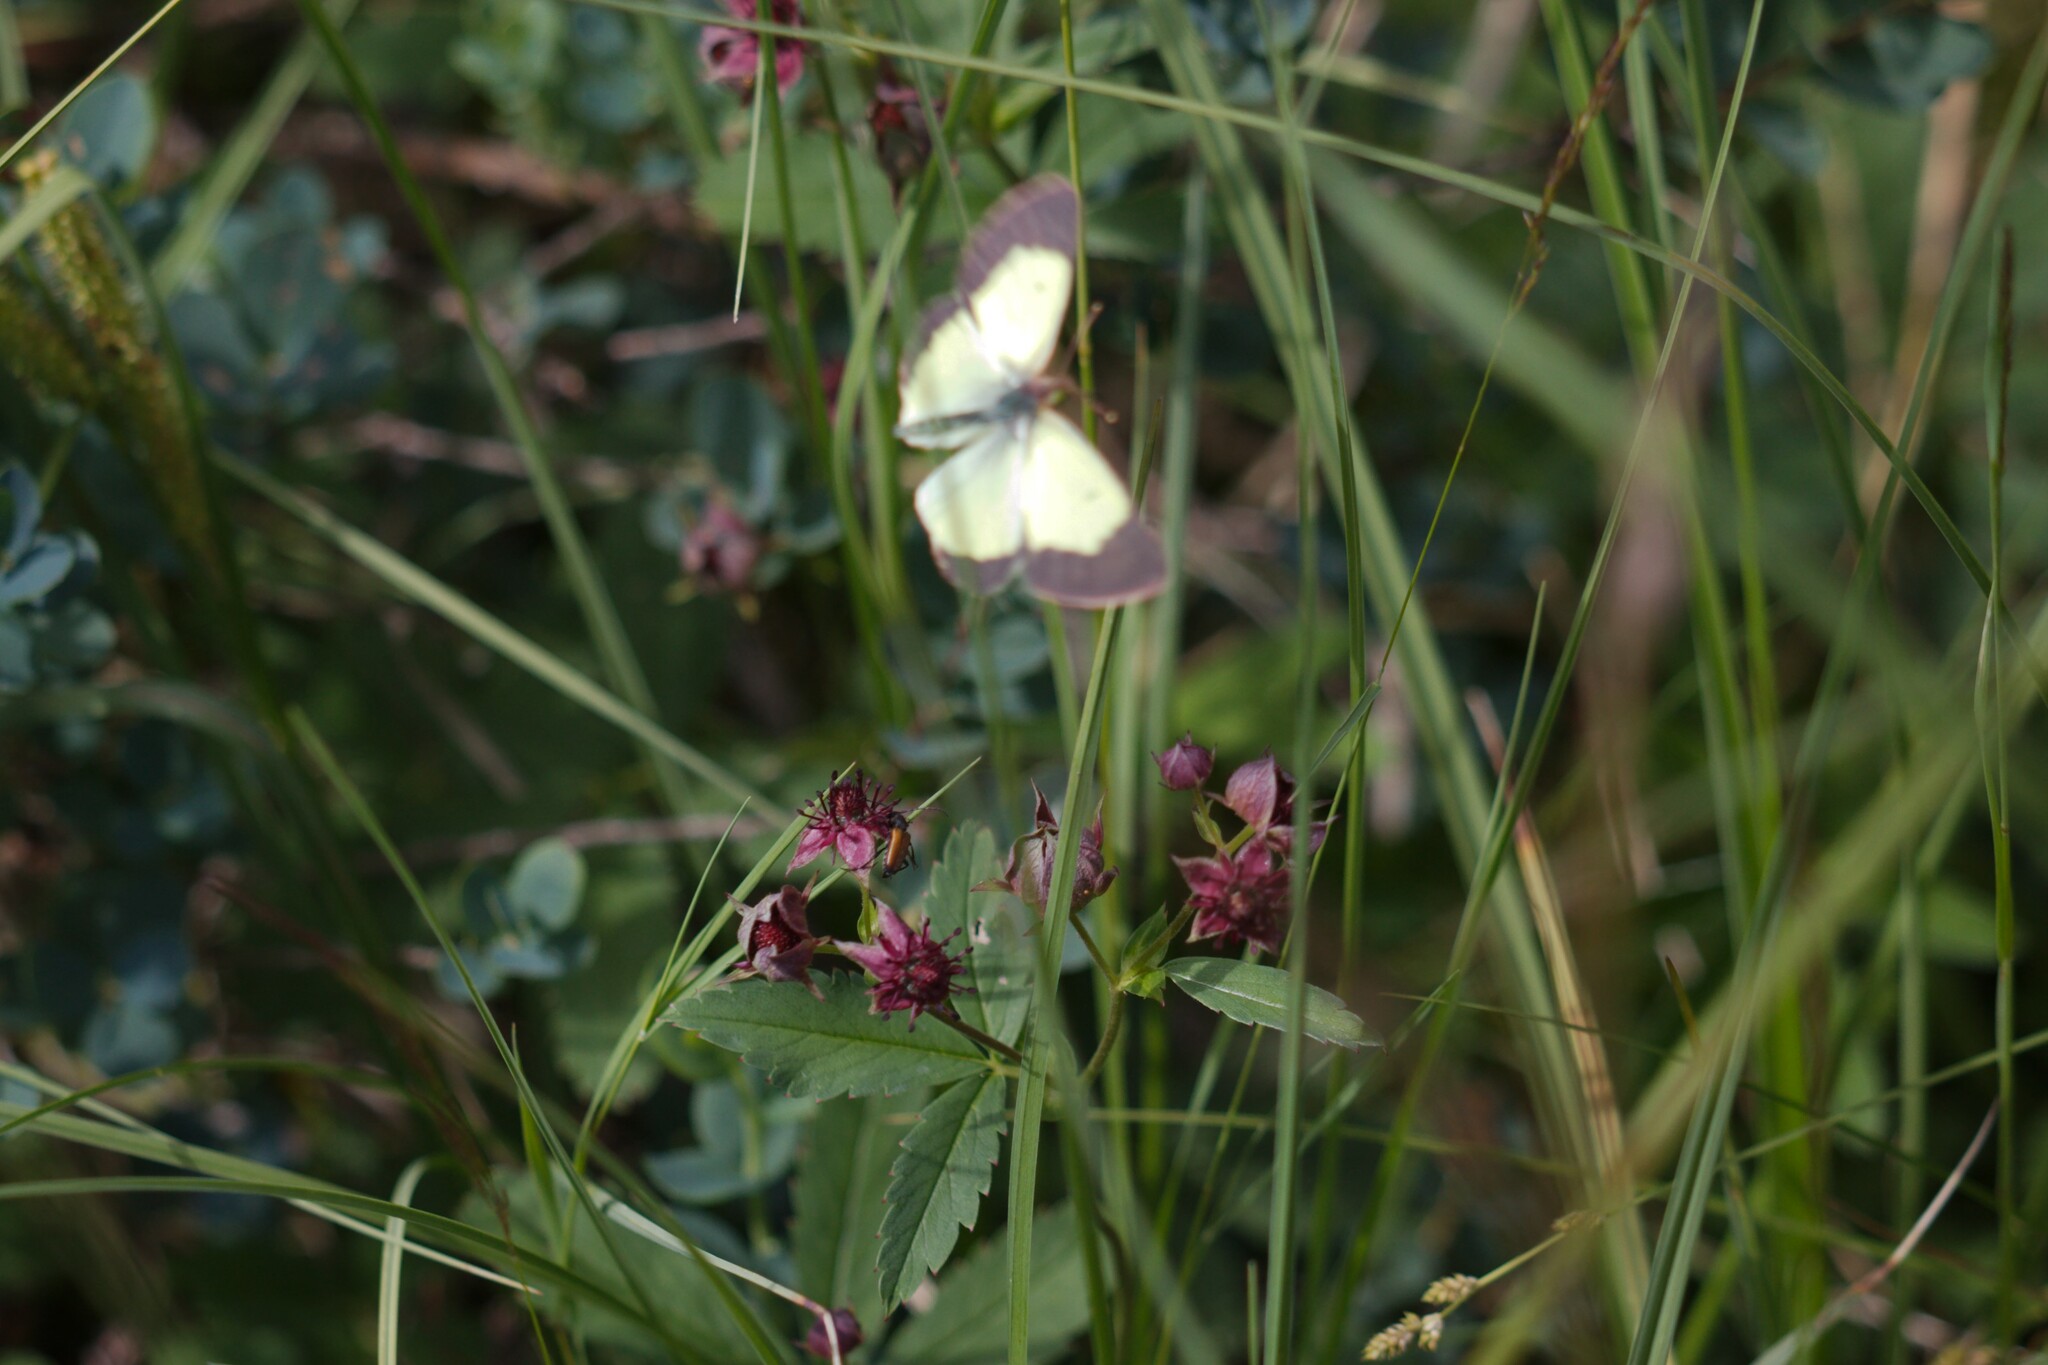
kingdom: Animalia
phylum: Arthropoda
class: Insecta
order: Lepidoptera
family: Pieridae
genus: Colias
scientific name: Colias palaeno
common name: Moorland clouded yellow
